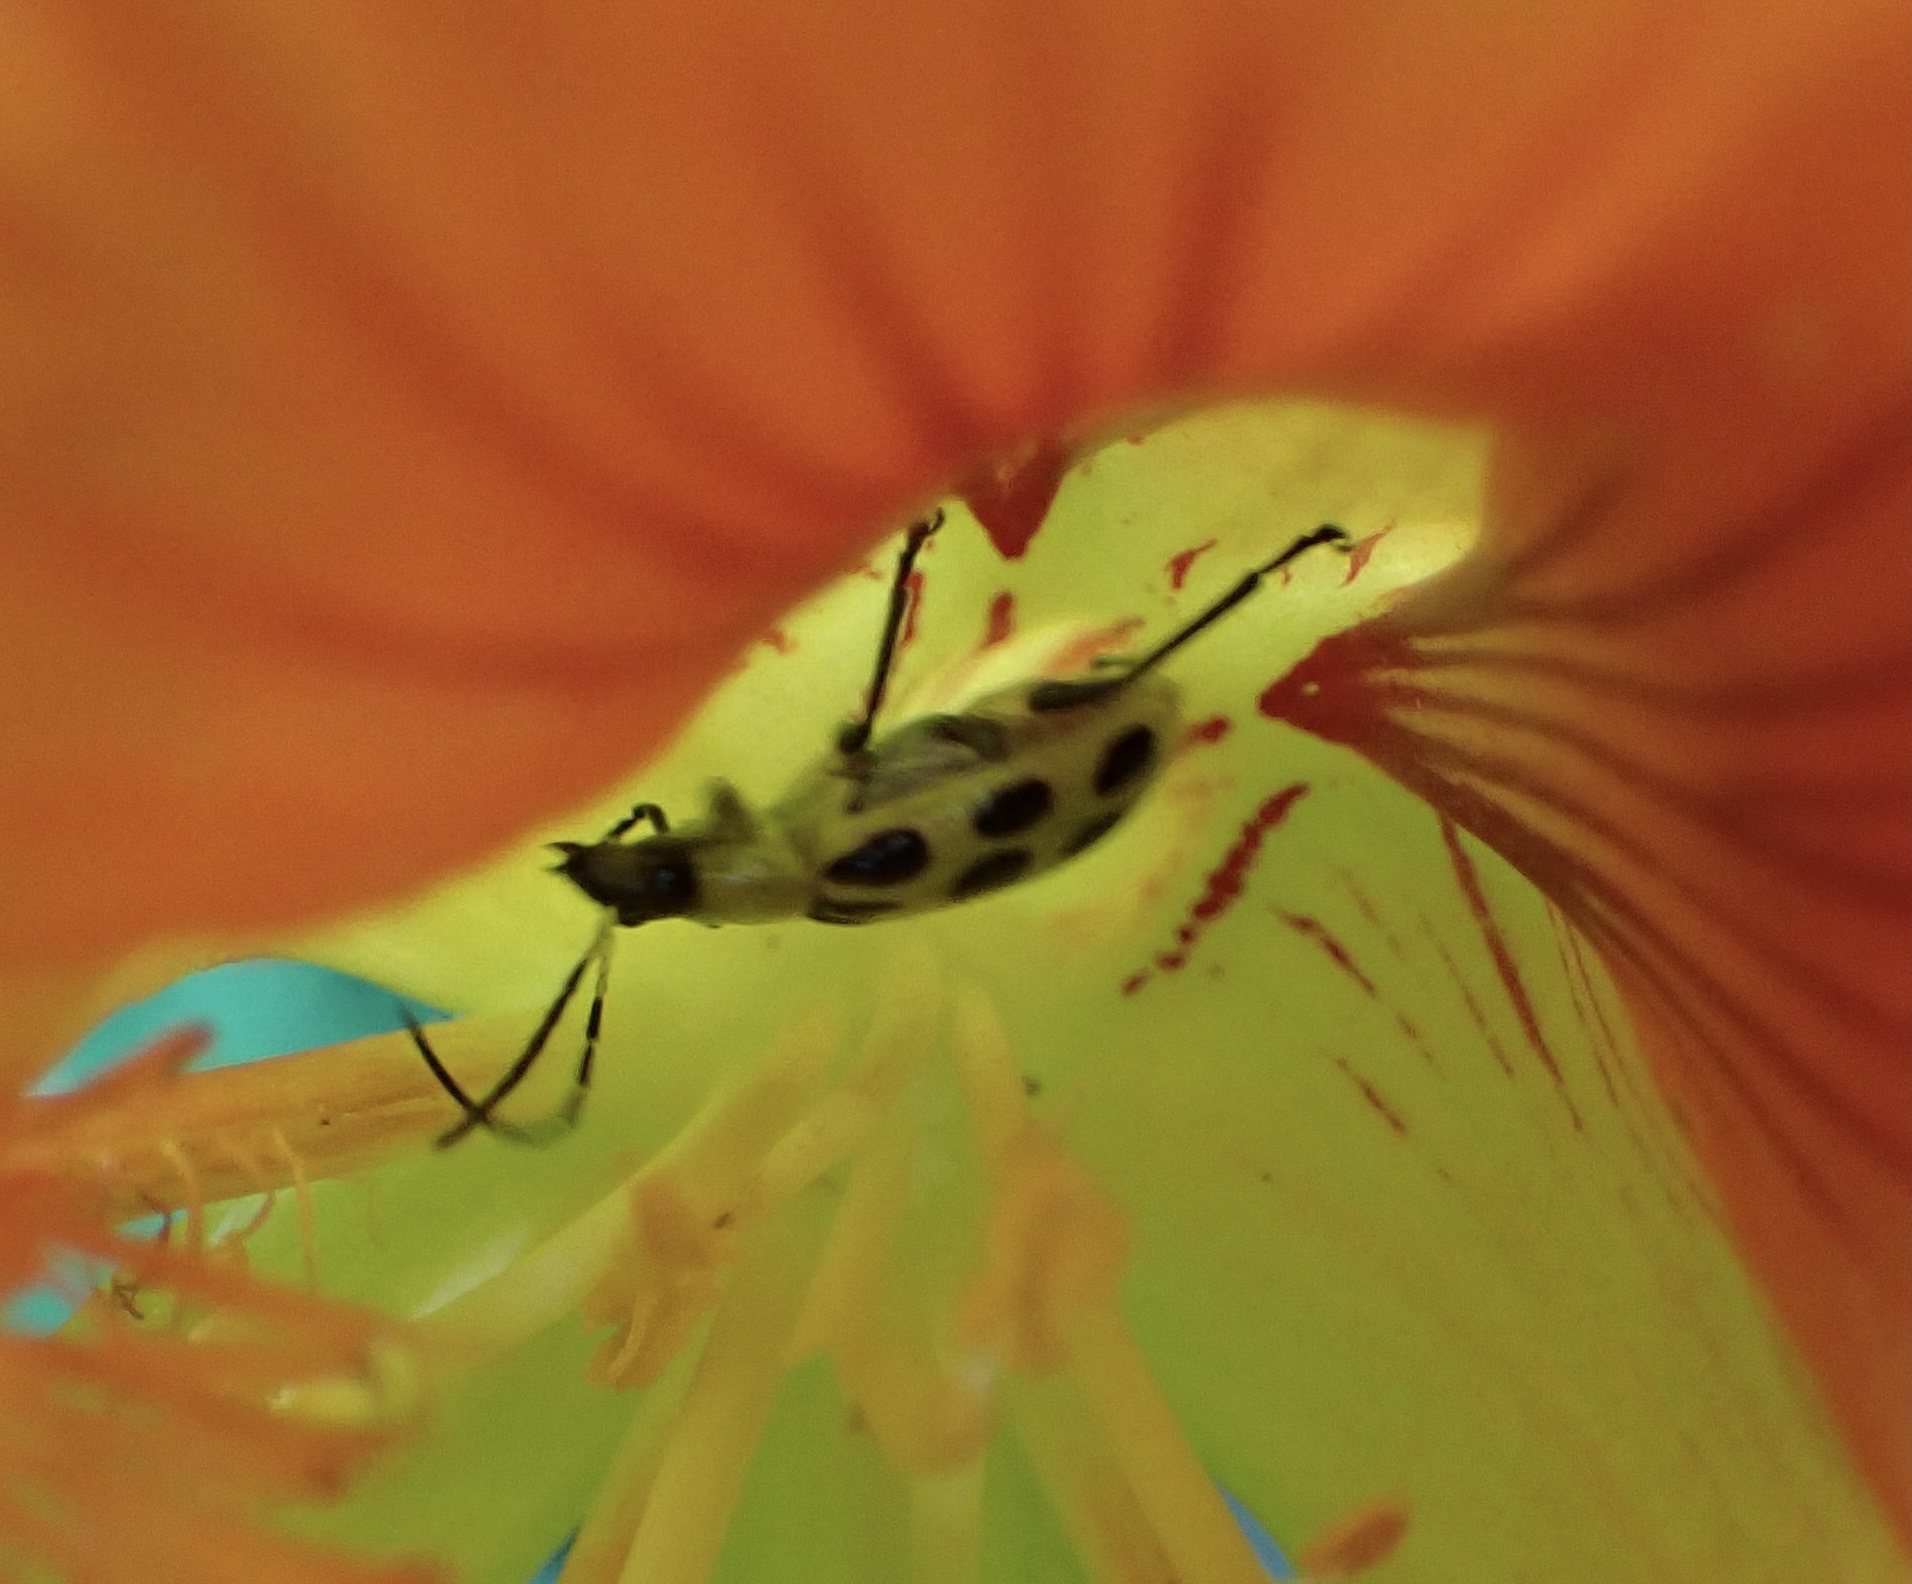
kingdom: Animalia
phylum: Arthropoda
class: Insecta
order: Coleoptera
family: Chrysomelidae
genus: Diabrotica
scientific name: Diabrotica undecimpunctata
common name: Spotted cucumber beetle
